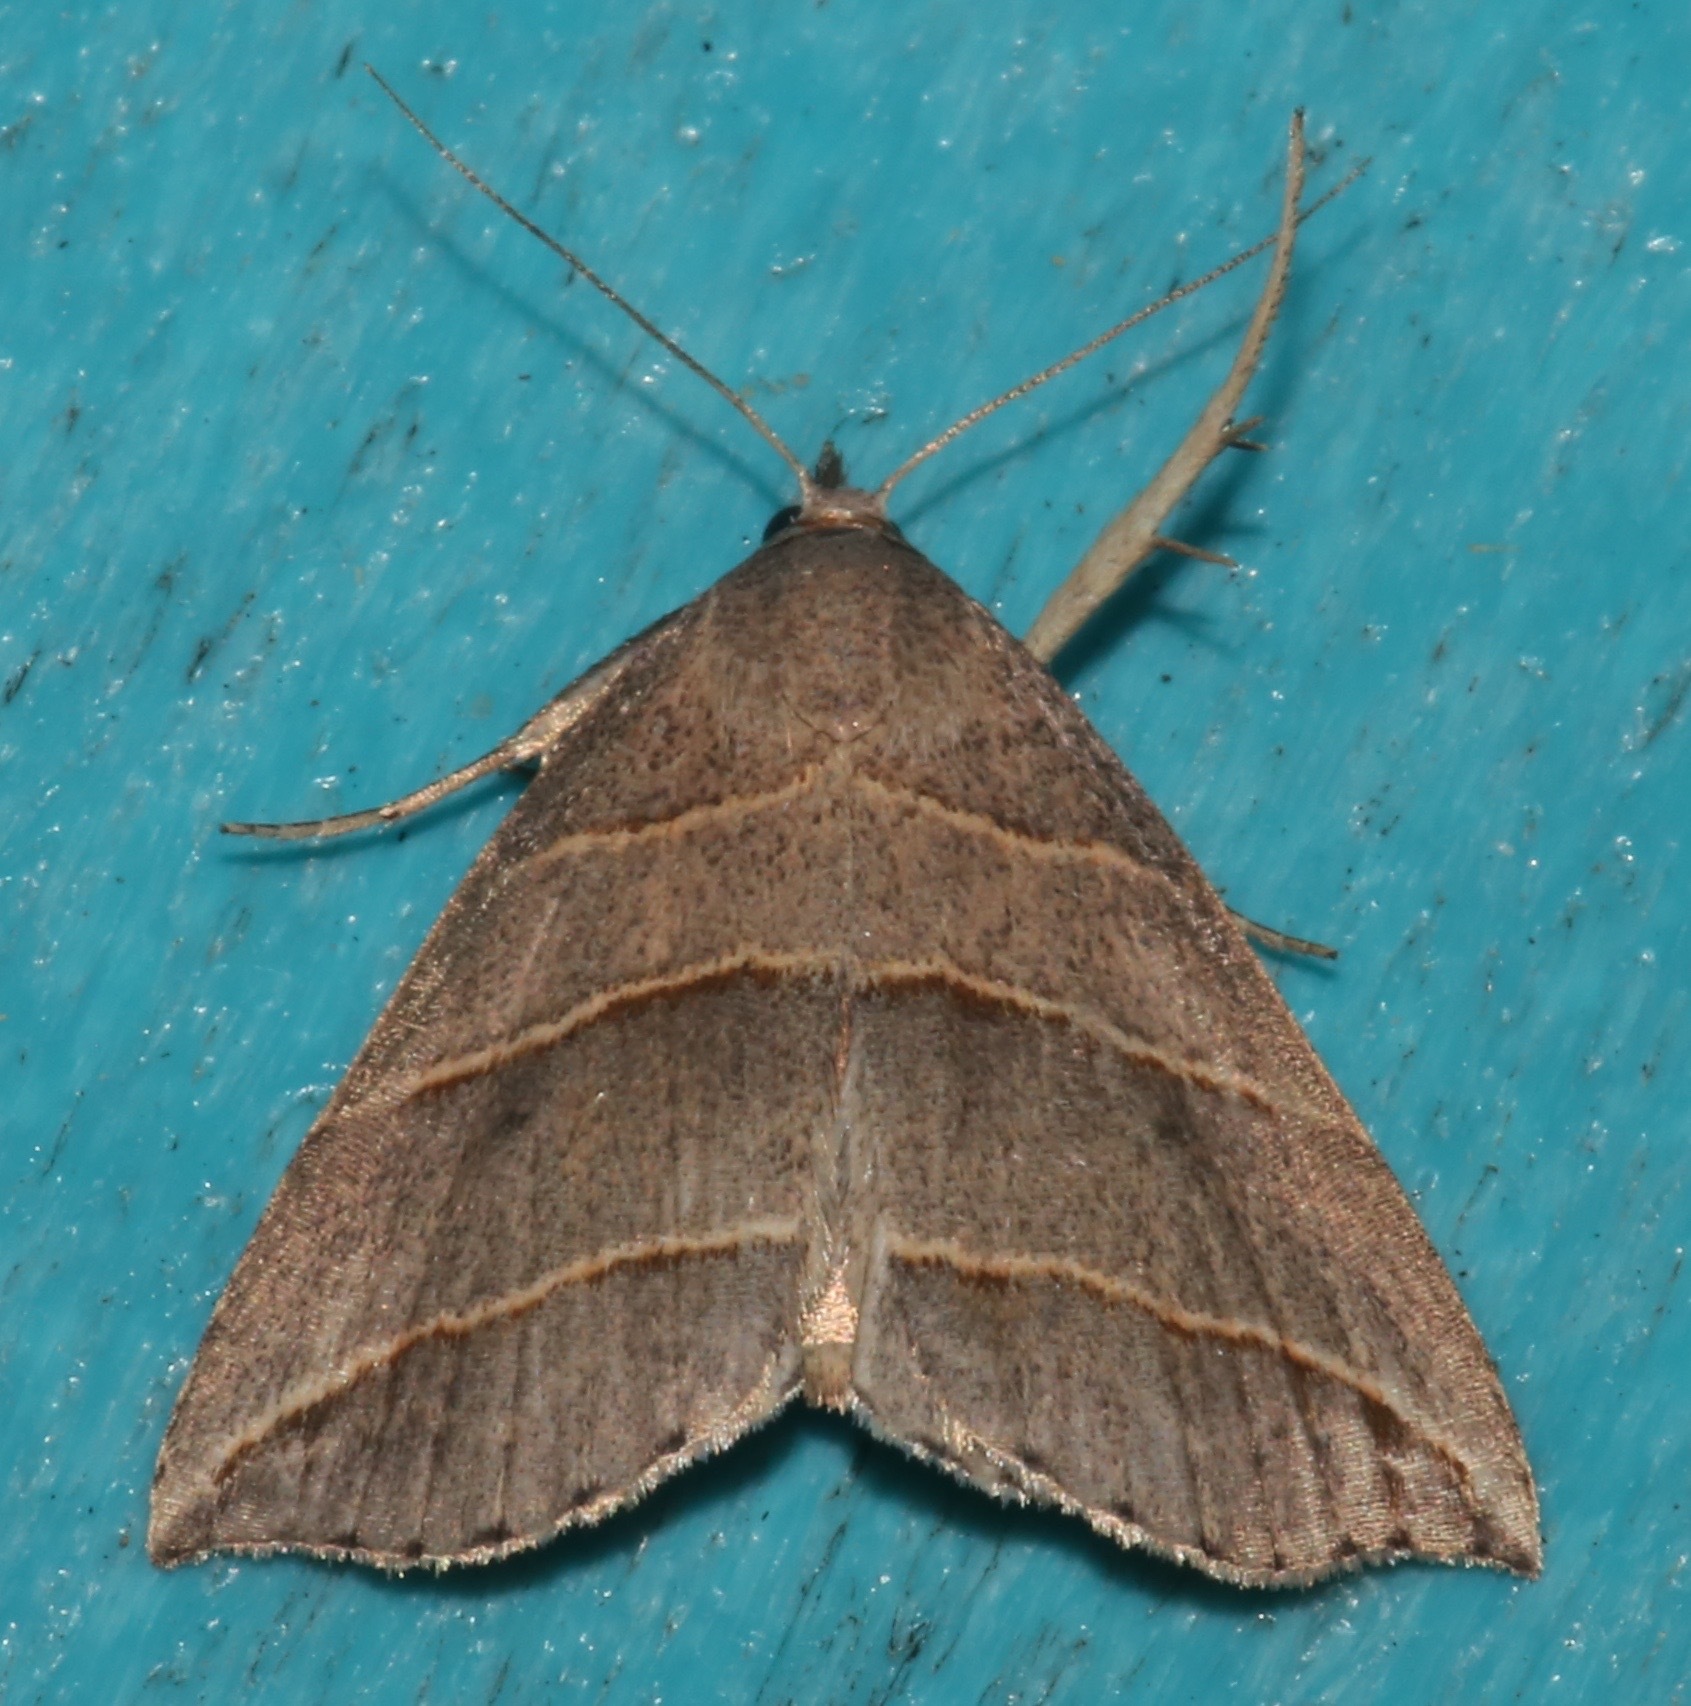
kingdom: Animalia
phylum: Arthropoda
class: Insecta
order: Lepidoptera
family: Erebidae
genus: Colobochyla
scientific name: Colobochyla interpuncta
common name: Yellow-lined owlet
